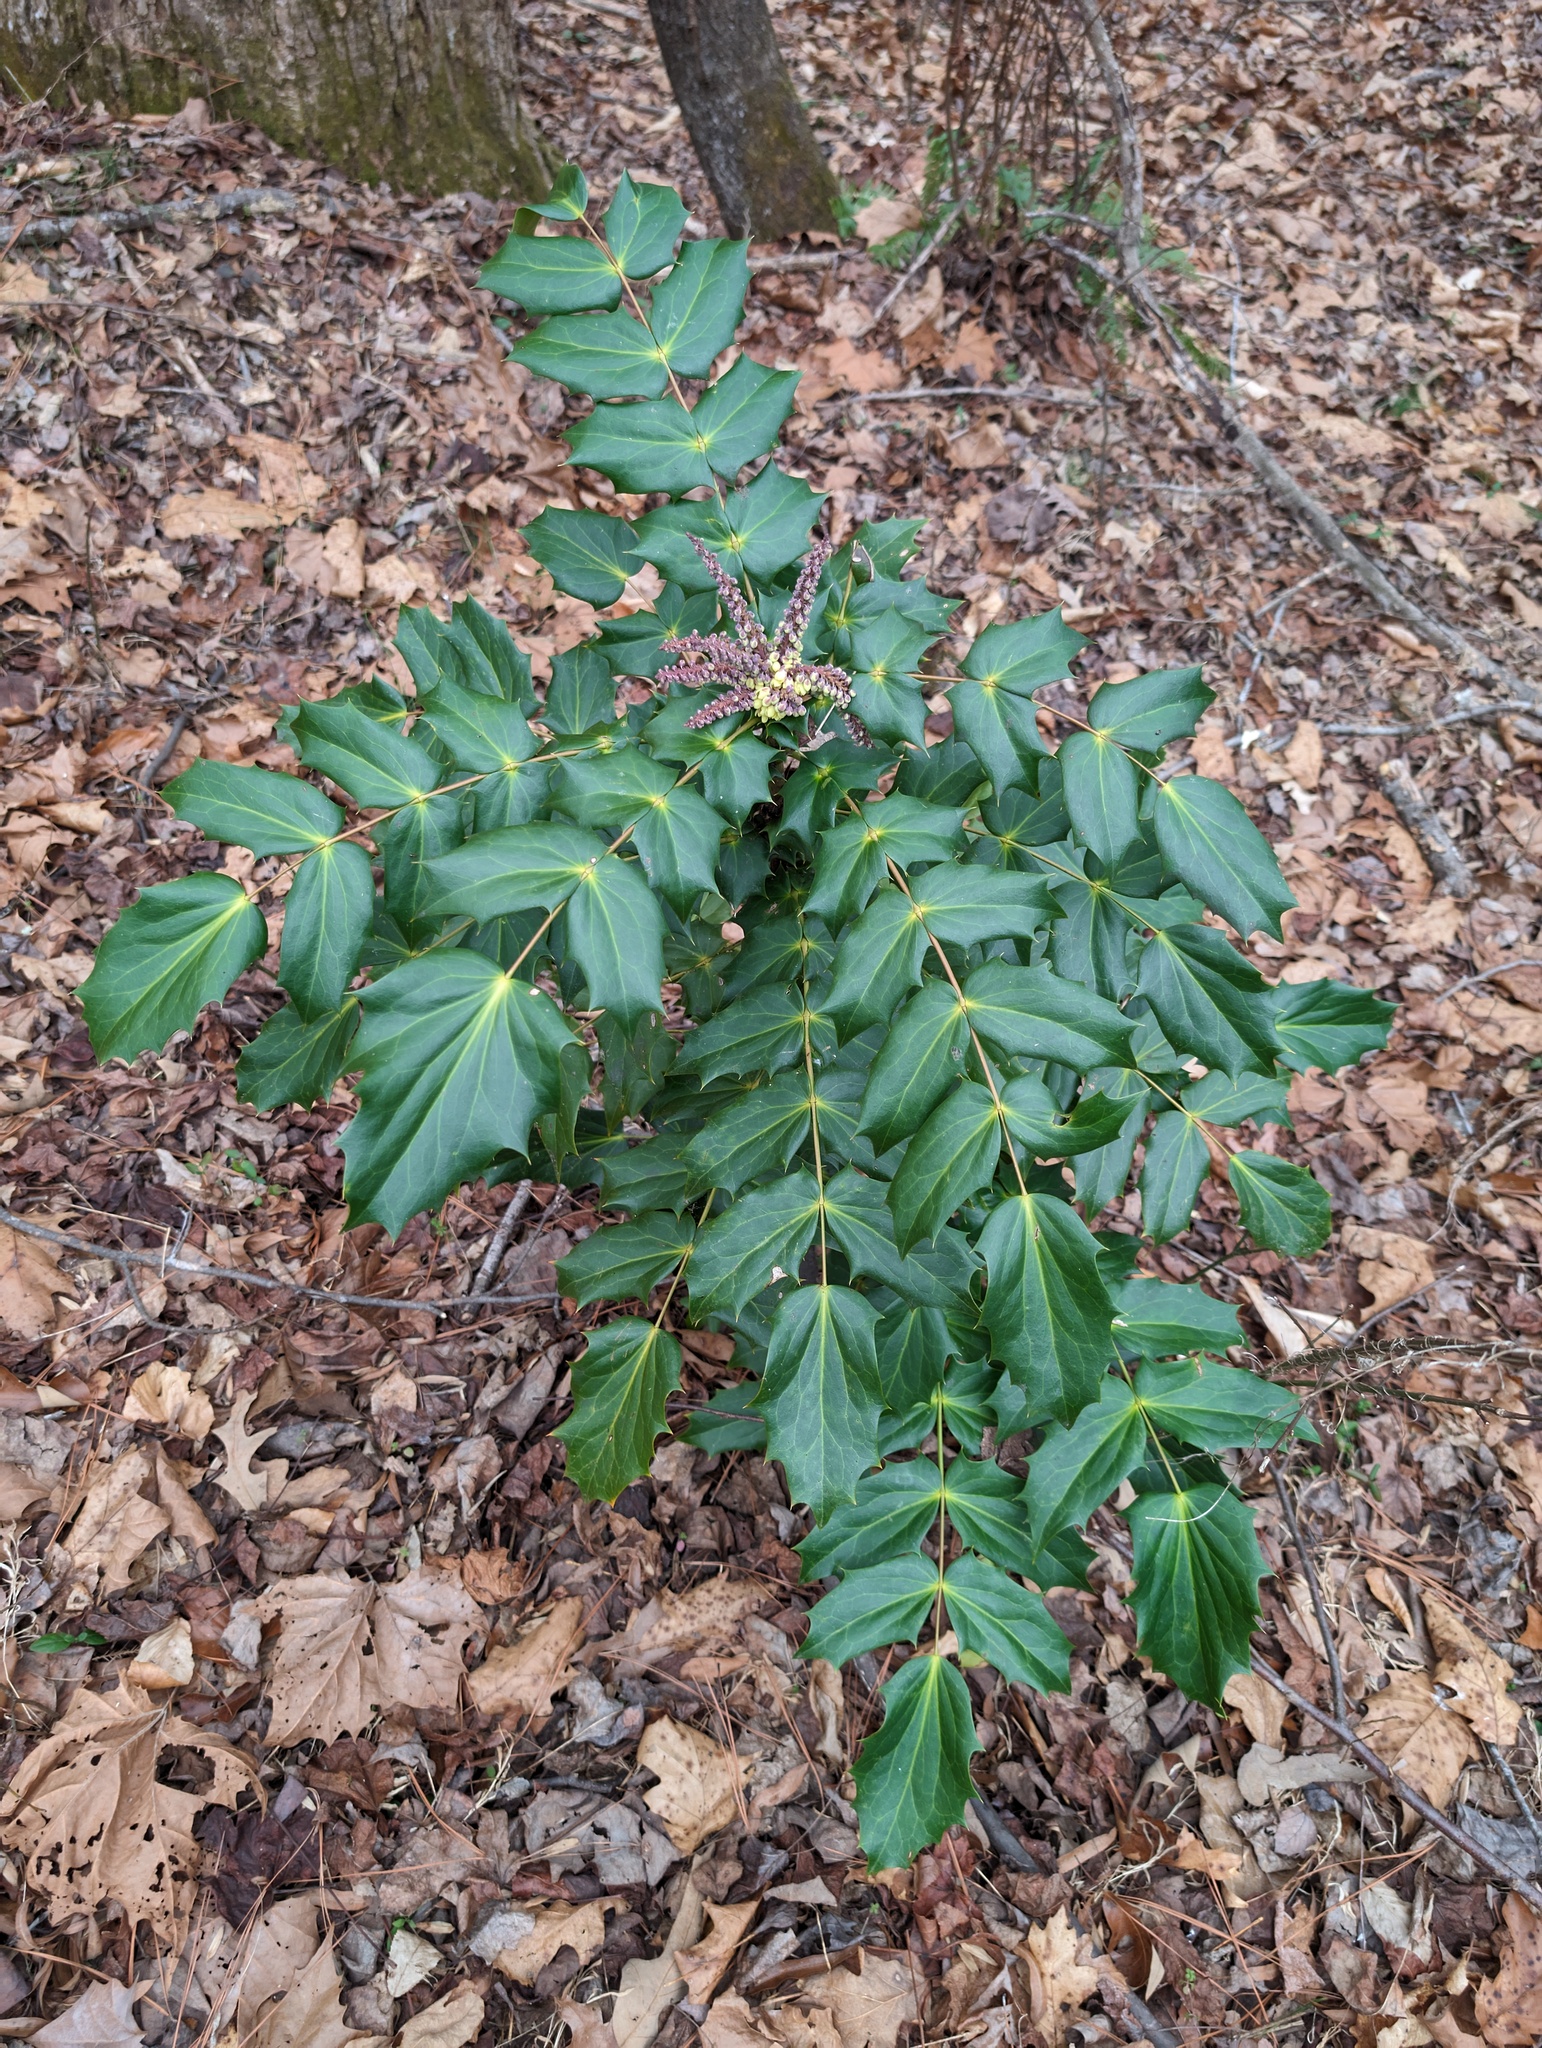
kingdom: Plantae
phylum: Tracheophyta
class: Magnoliopsida
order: Ranunculales
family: Berberidaceae
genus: Mahonia
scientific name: Mahonia bealei
